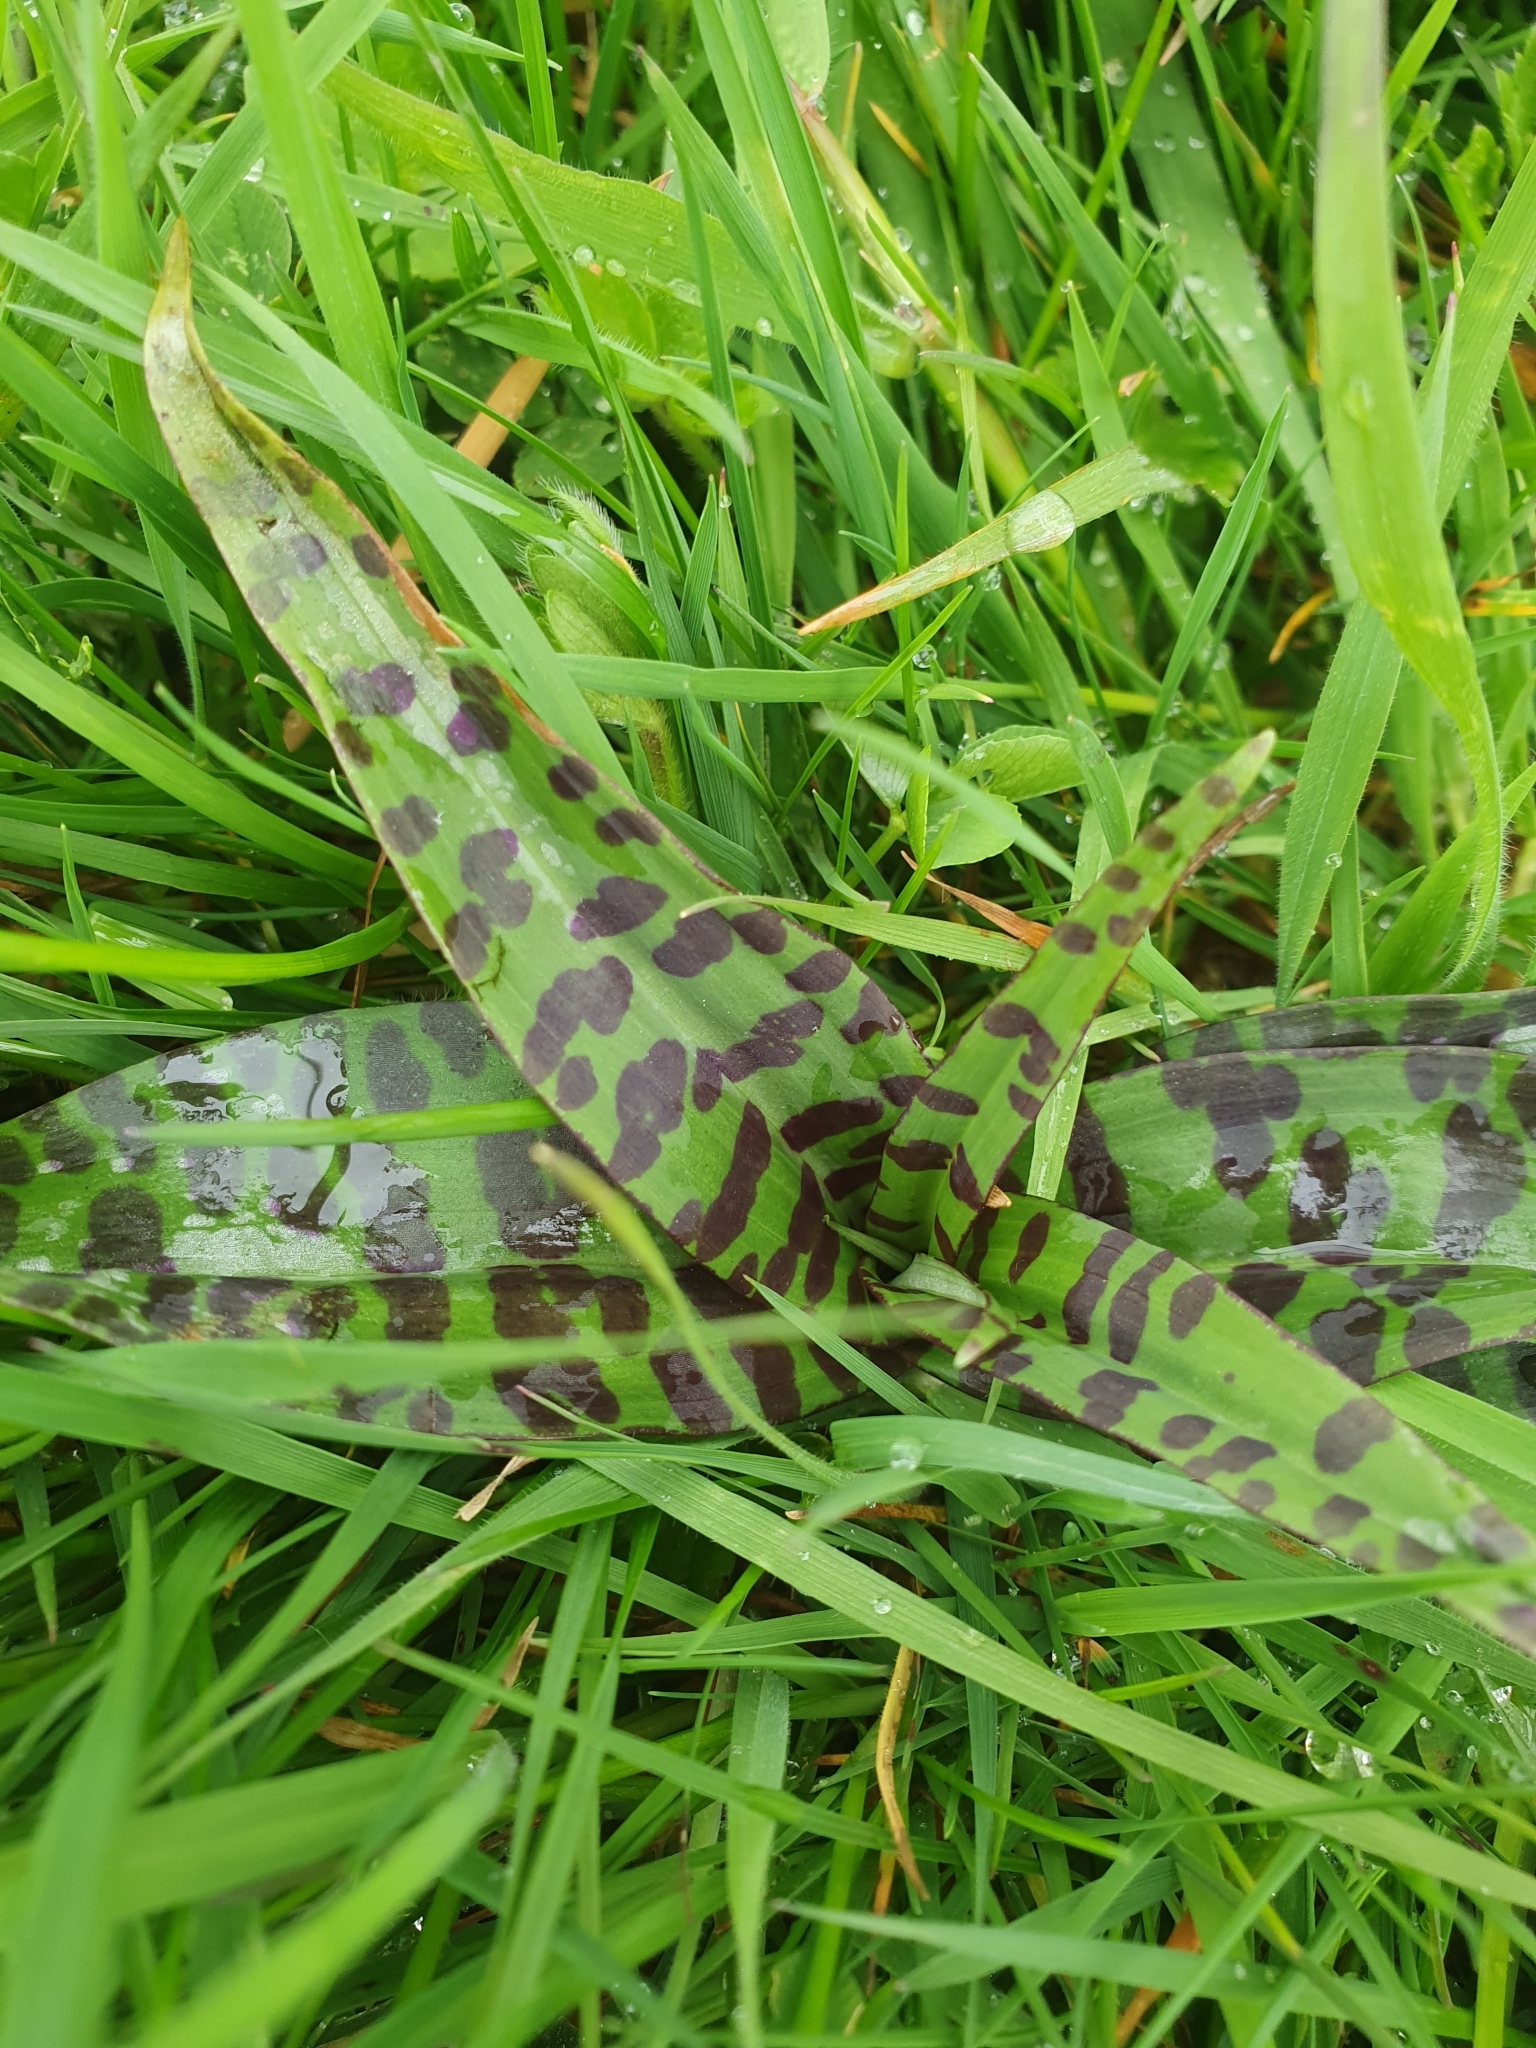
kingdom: Plantae
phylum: Tracheophyta
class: Liliopsida
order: Asparagales
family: Orchidaceae
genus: Dactylorhiza
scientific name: Dactylorhiza maculata
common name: Heath spotted-orchid
